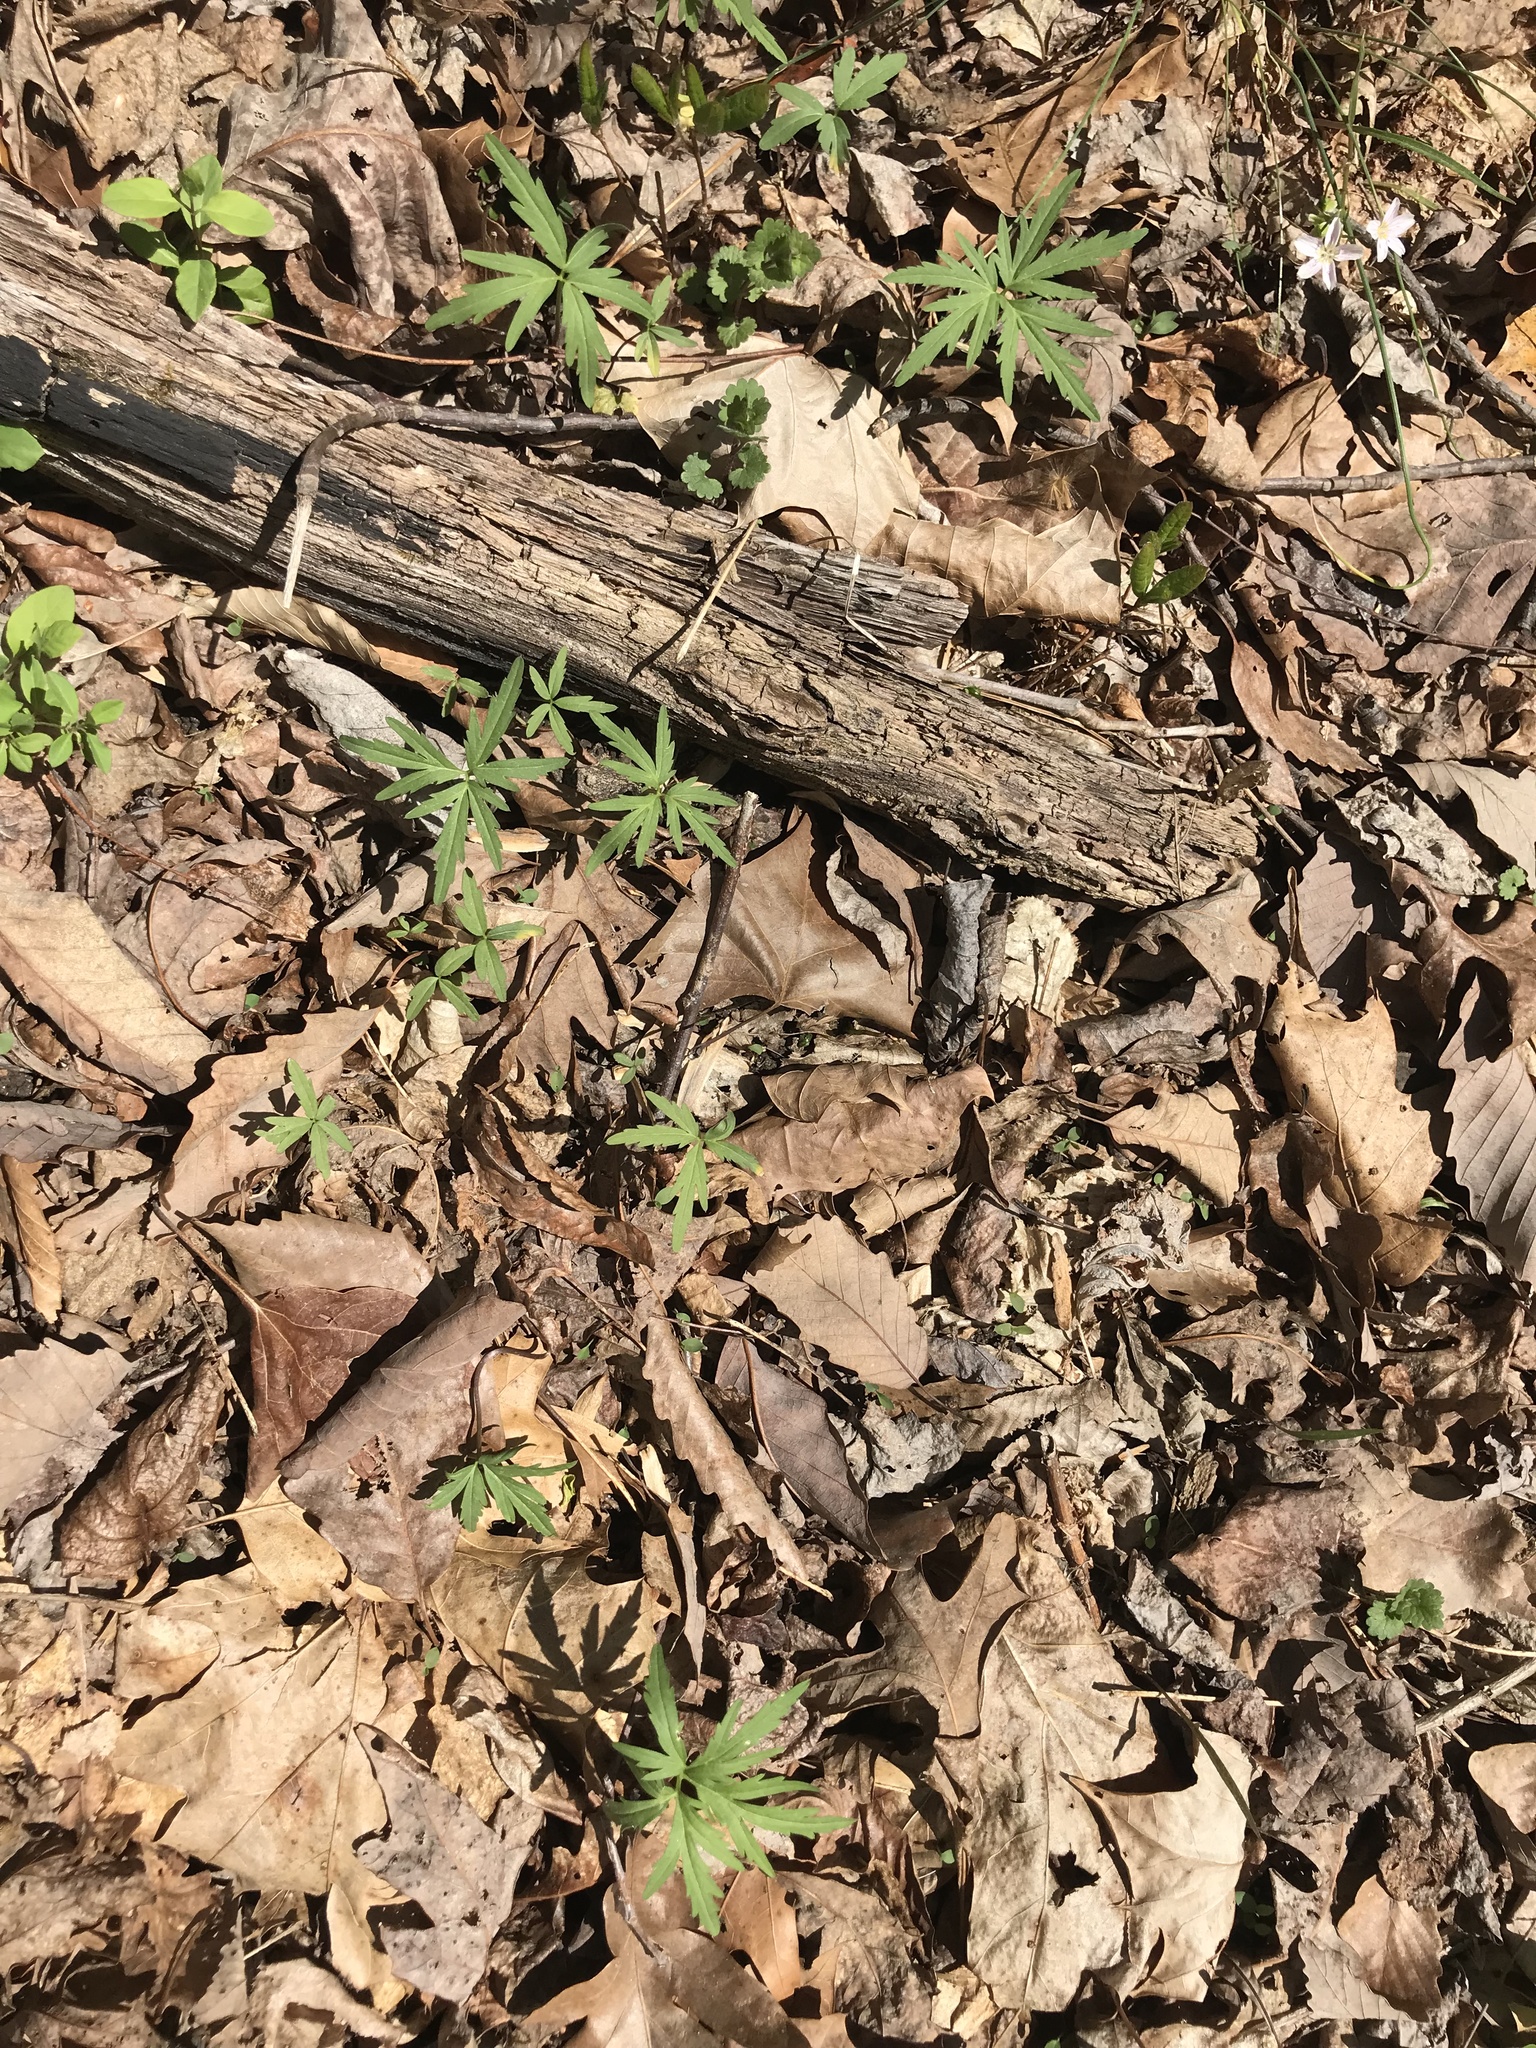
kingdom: Plantae
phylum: Tracheophyta
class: Magnoliopsida
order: Brassicales
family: Brassicaceae
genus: Cardamine
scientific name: Cardamine concatenata
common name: Cut-leaf toothcup
